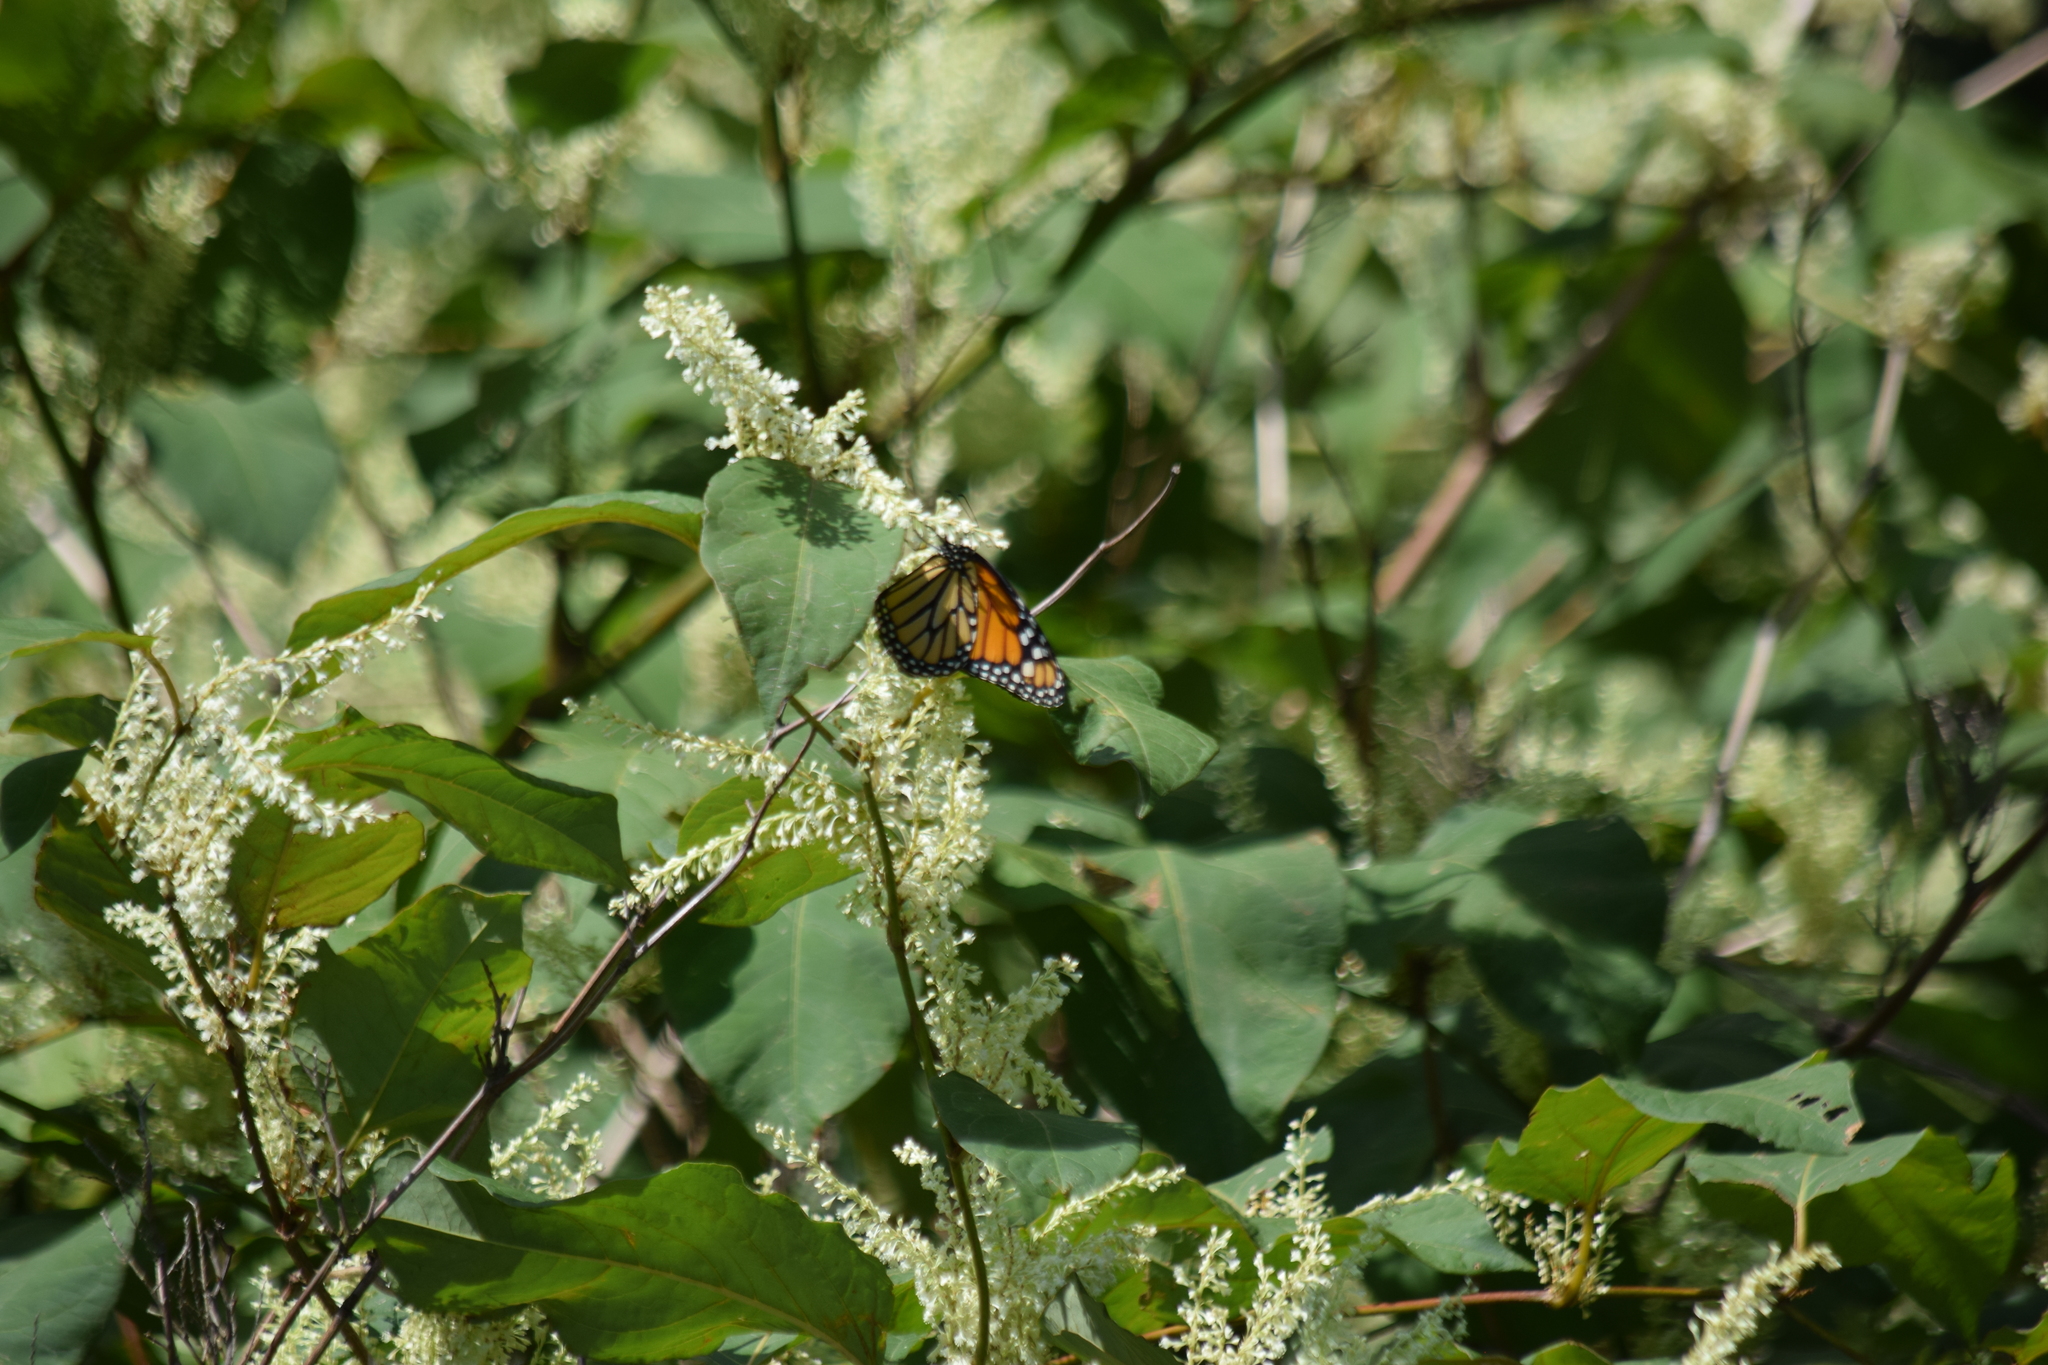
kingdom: Animalia
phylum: Arthropoda
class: Insecta
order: Lepidoptera
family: Nymphalidae
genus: Danaus
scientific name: Danaus plexippus
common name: Monarch
